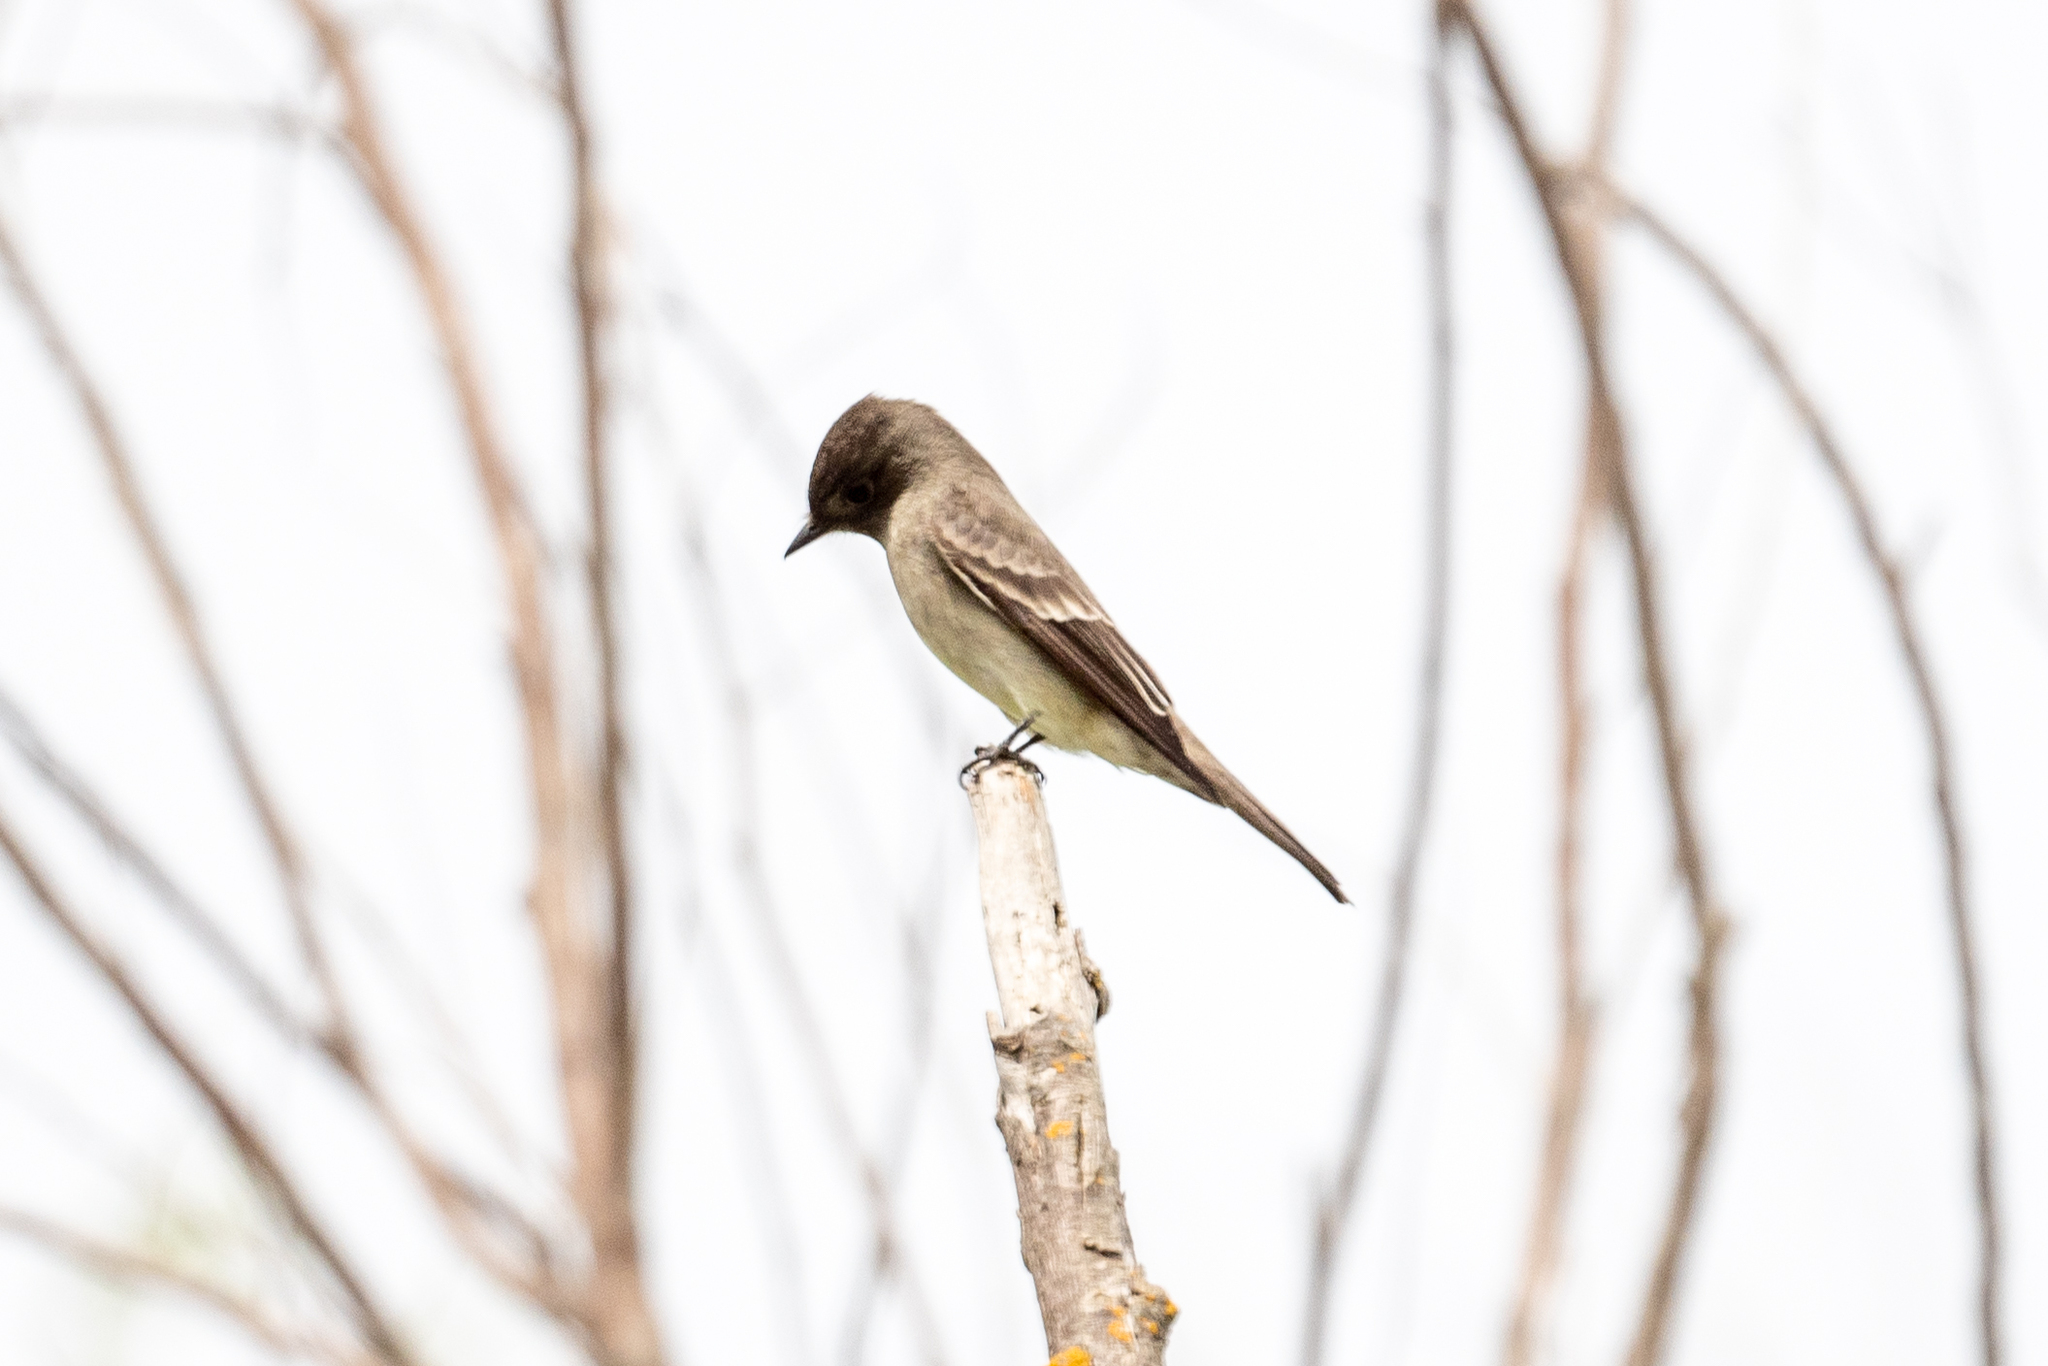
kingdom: Animalia
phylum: Chordata
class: Aves
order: Passeriformes
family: Tyrannidae
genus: Contopus
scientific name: Contopus sordidulus
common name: Western wood-pewee
